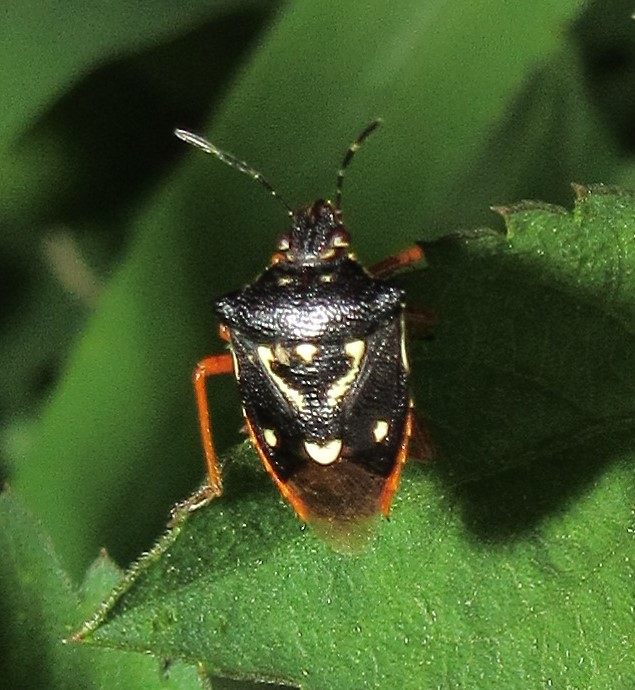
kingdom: Animalia
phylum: Arthropoda
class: Insecta
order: Hemiptera
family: Pentatomidae
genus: Mormidea
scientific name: Mormidea v-luteum
